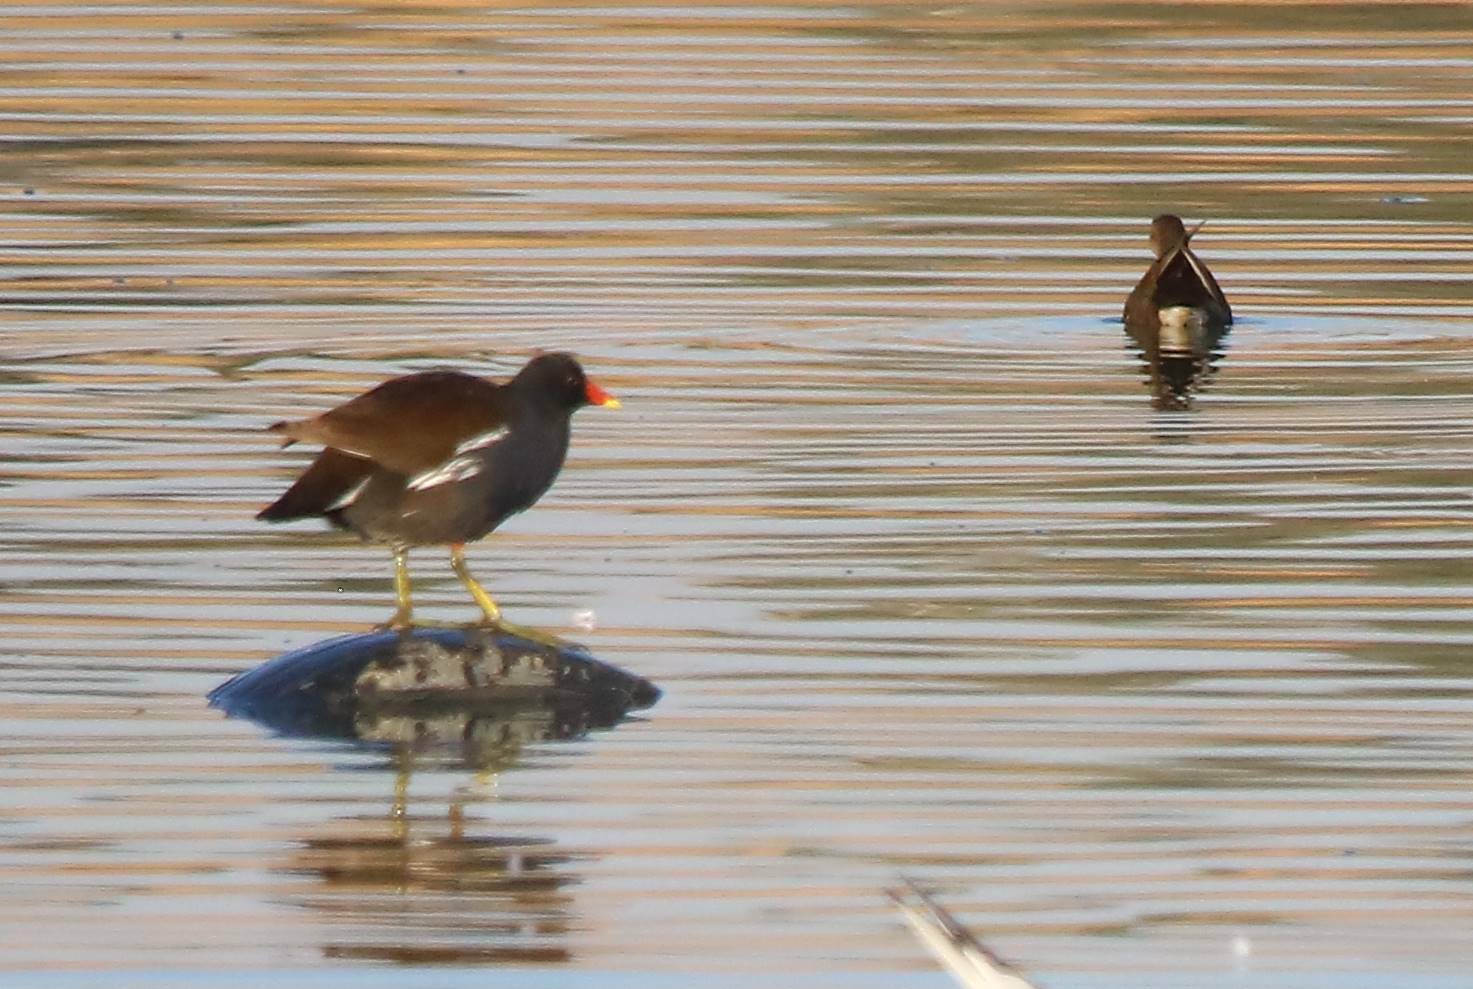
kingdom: Animalia
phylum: Chordata
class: Aves
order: Gruiformes
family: Rallidae
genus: Gallinula
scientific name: Gallinula chloropus
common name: Common moorhen
